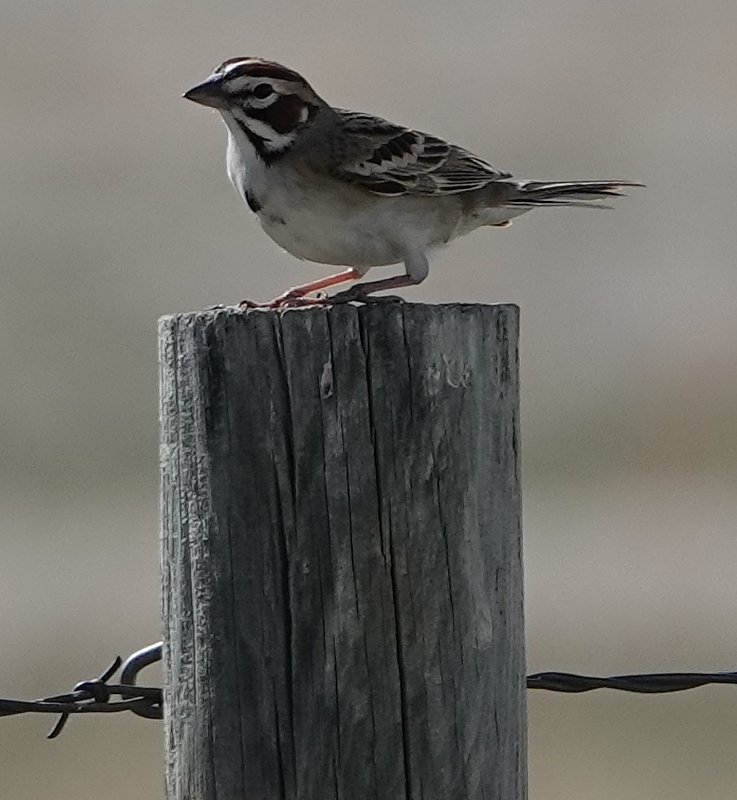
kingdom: Animalia
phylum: Chordata
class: Aves
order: Passeriformes
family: Passerellidae
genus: Chondestes
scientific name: Chondestes grammacus
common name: Lark sparrow
